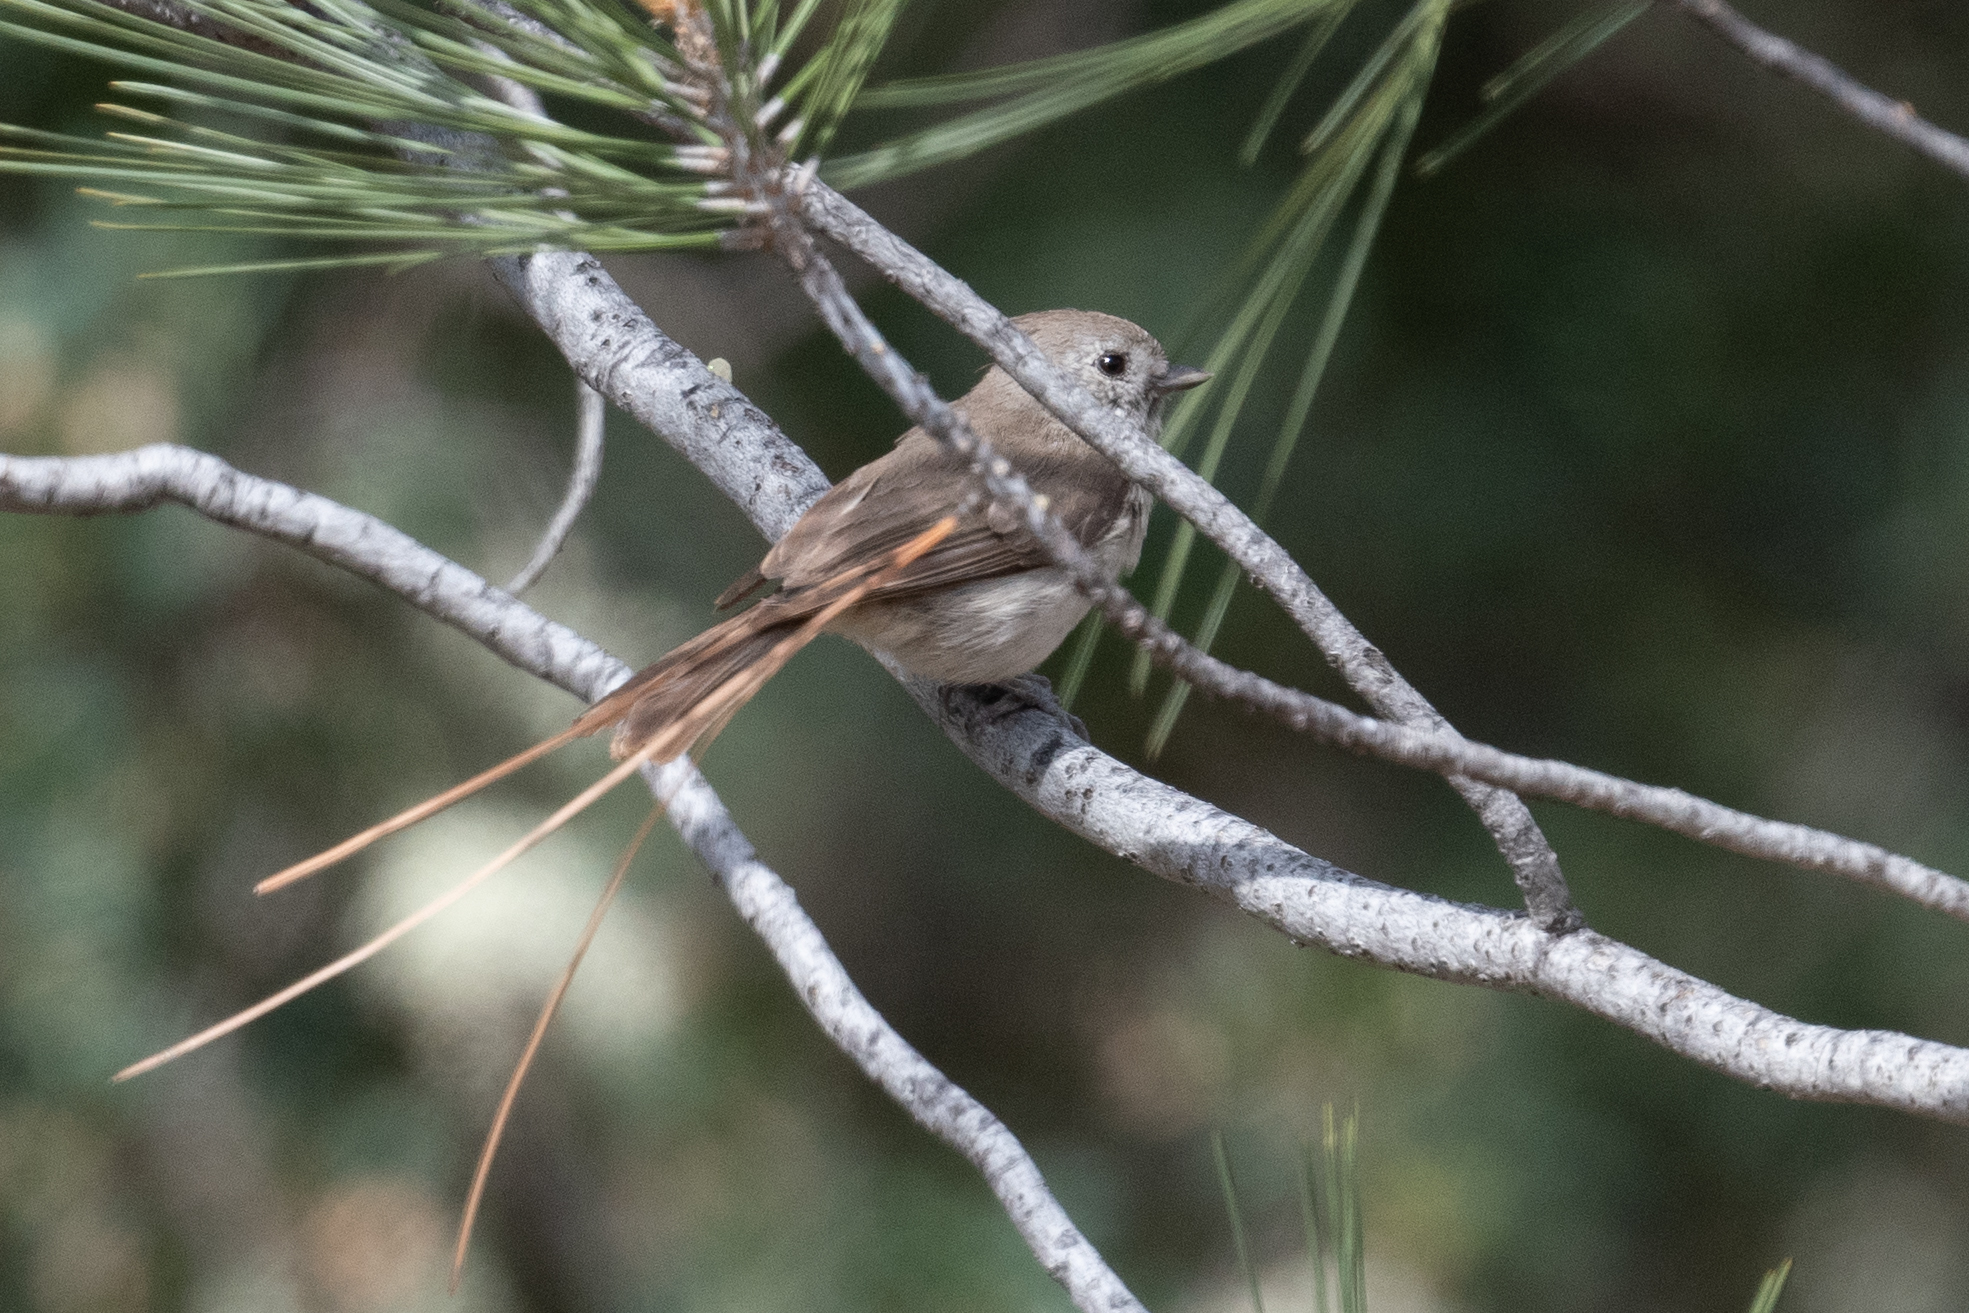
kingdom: Animalia
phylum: Chordata
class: Aves
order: Passeriformes
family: Paridae
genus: Baeolophus
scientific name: Baeolophus inornatus
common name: Oak titmouse
